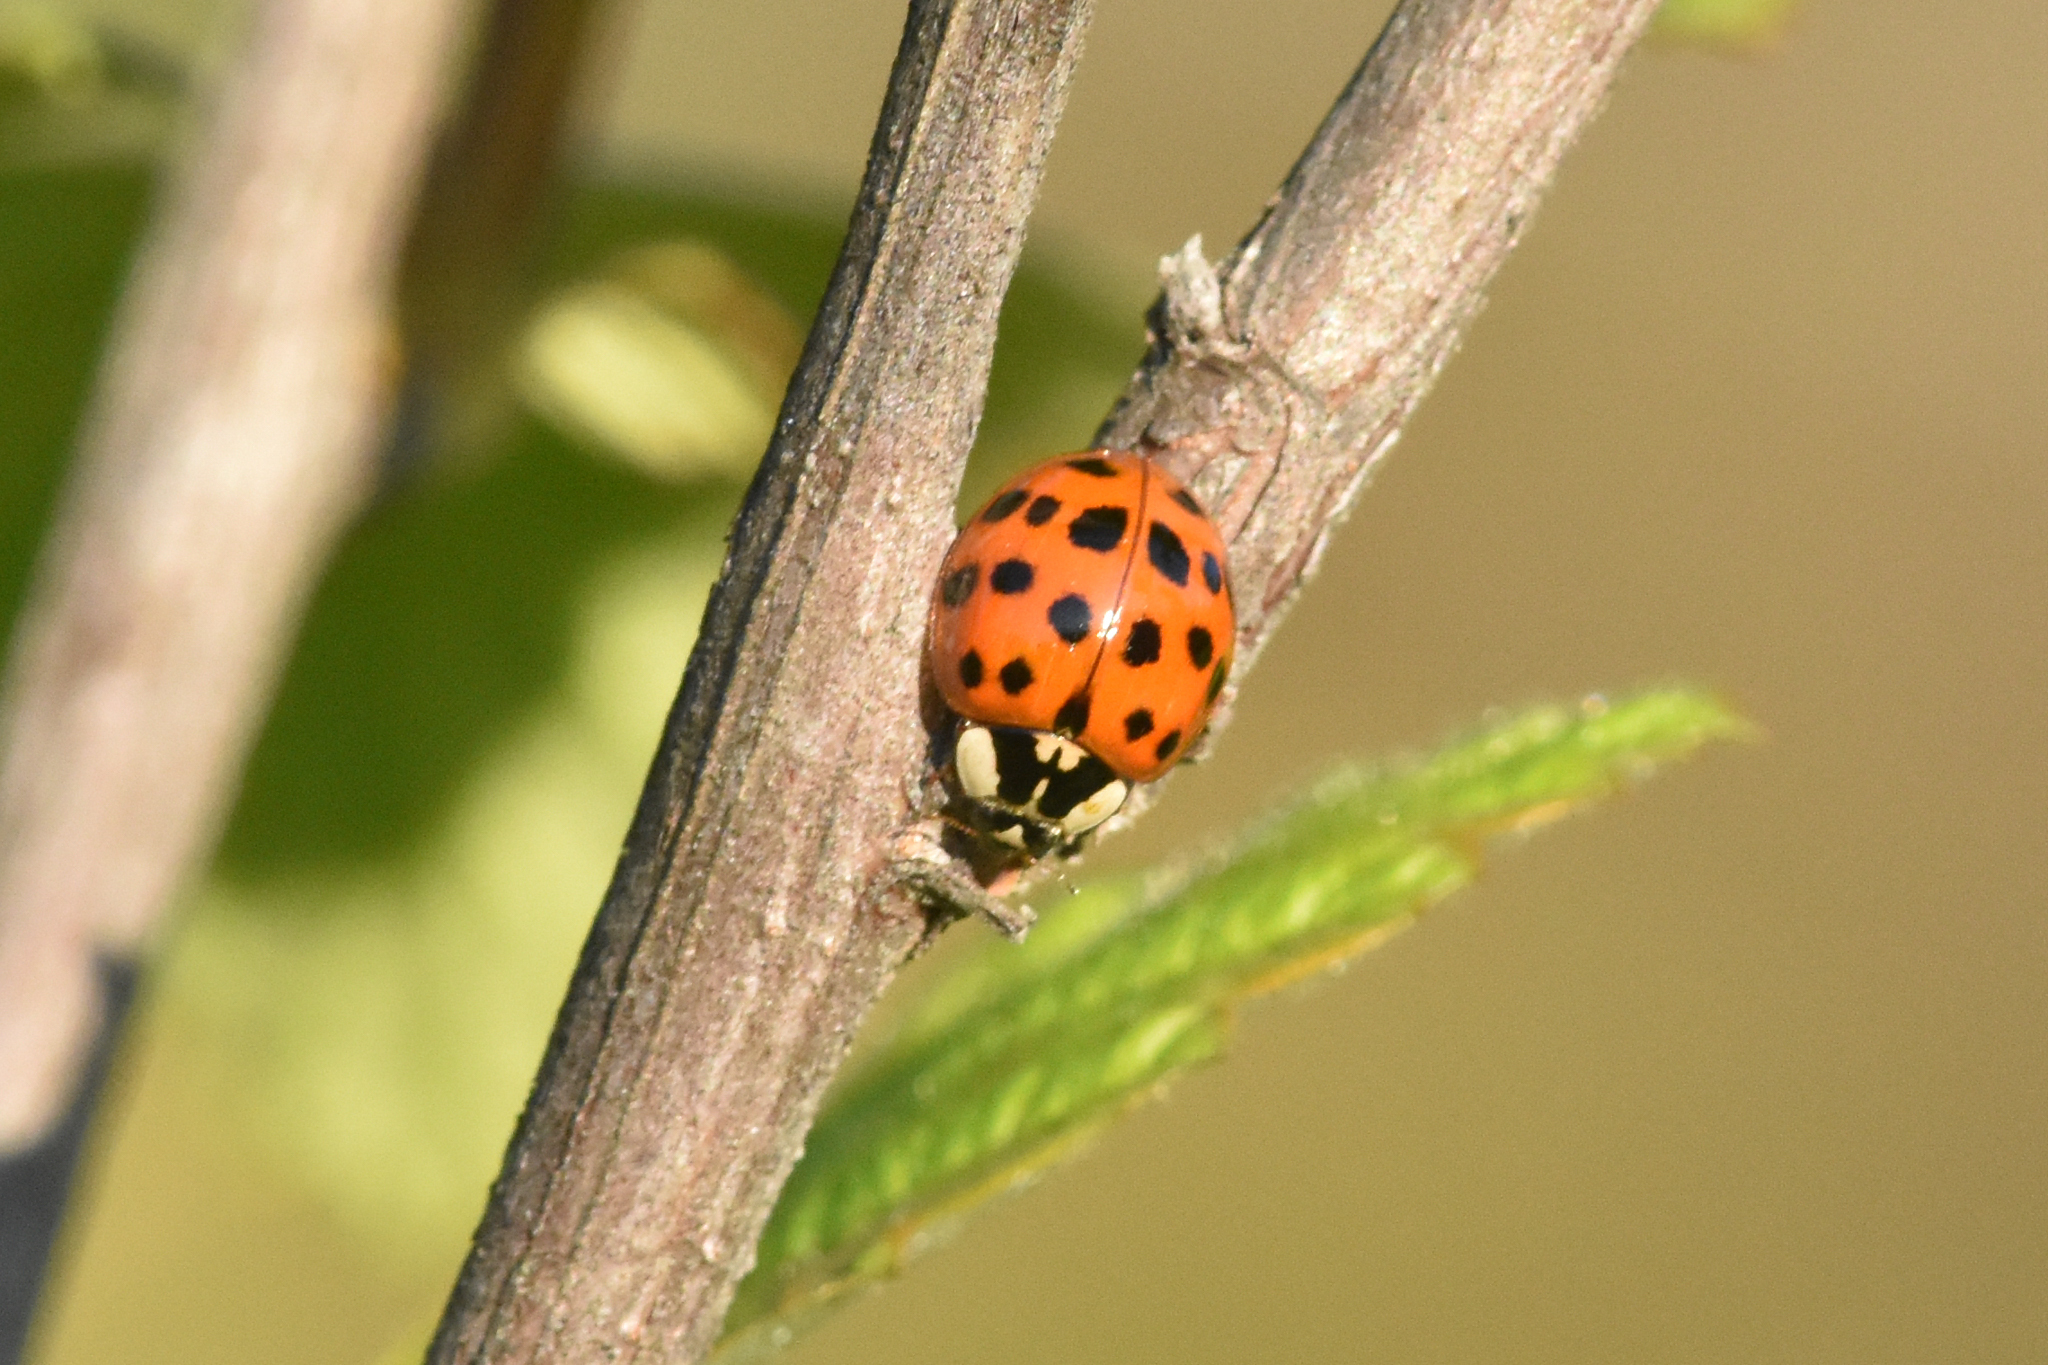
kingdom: Animalia
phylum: Arthropoda
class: Insecta
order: Coleoptera
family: Coccinellidae
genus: Harmonia
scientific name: Harmonia axyridis
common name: Harlequin ladybird
